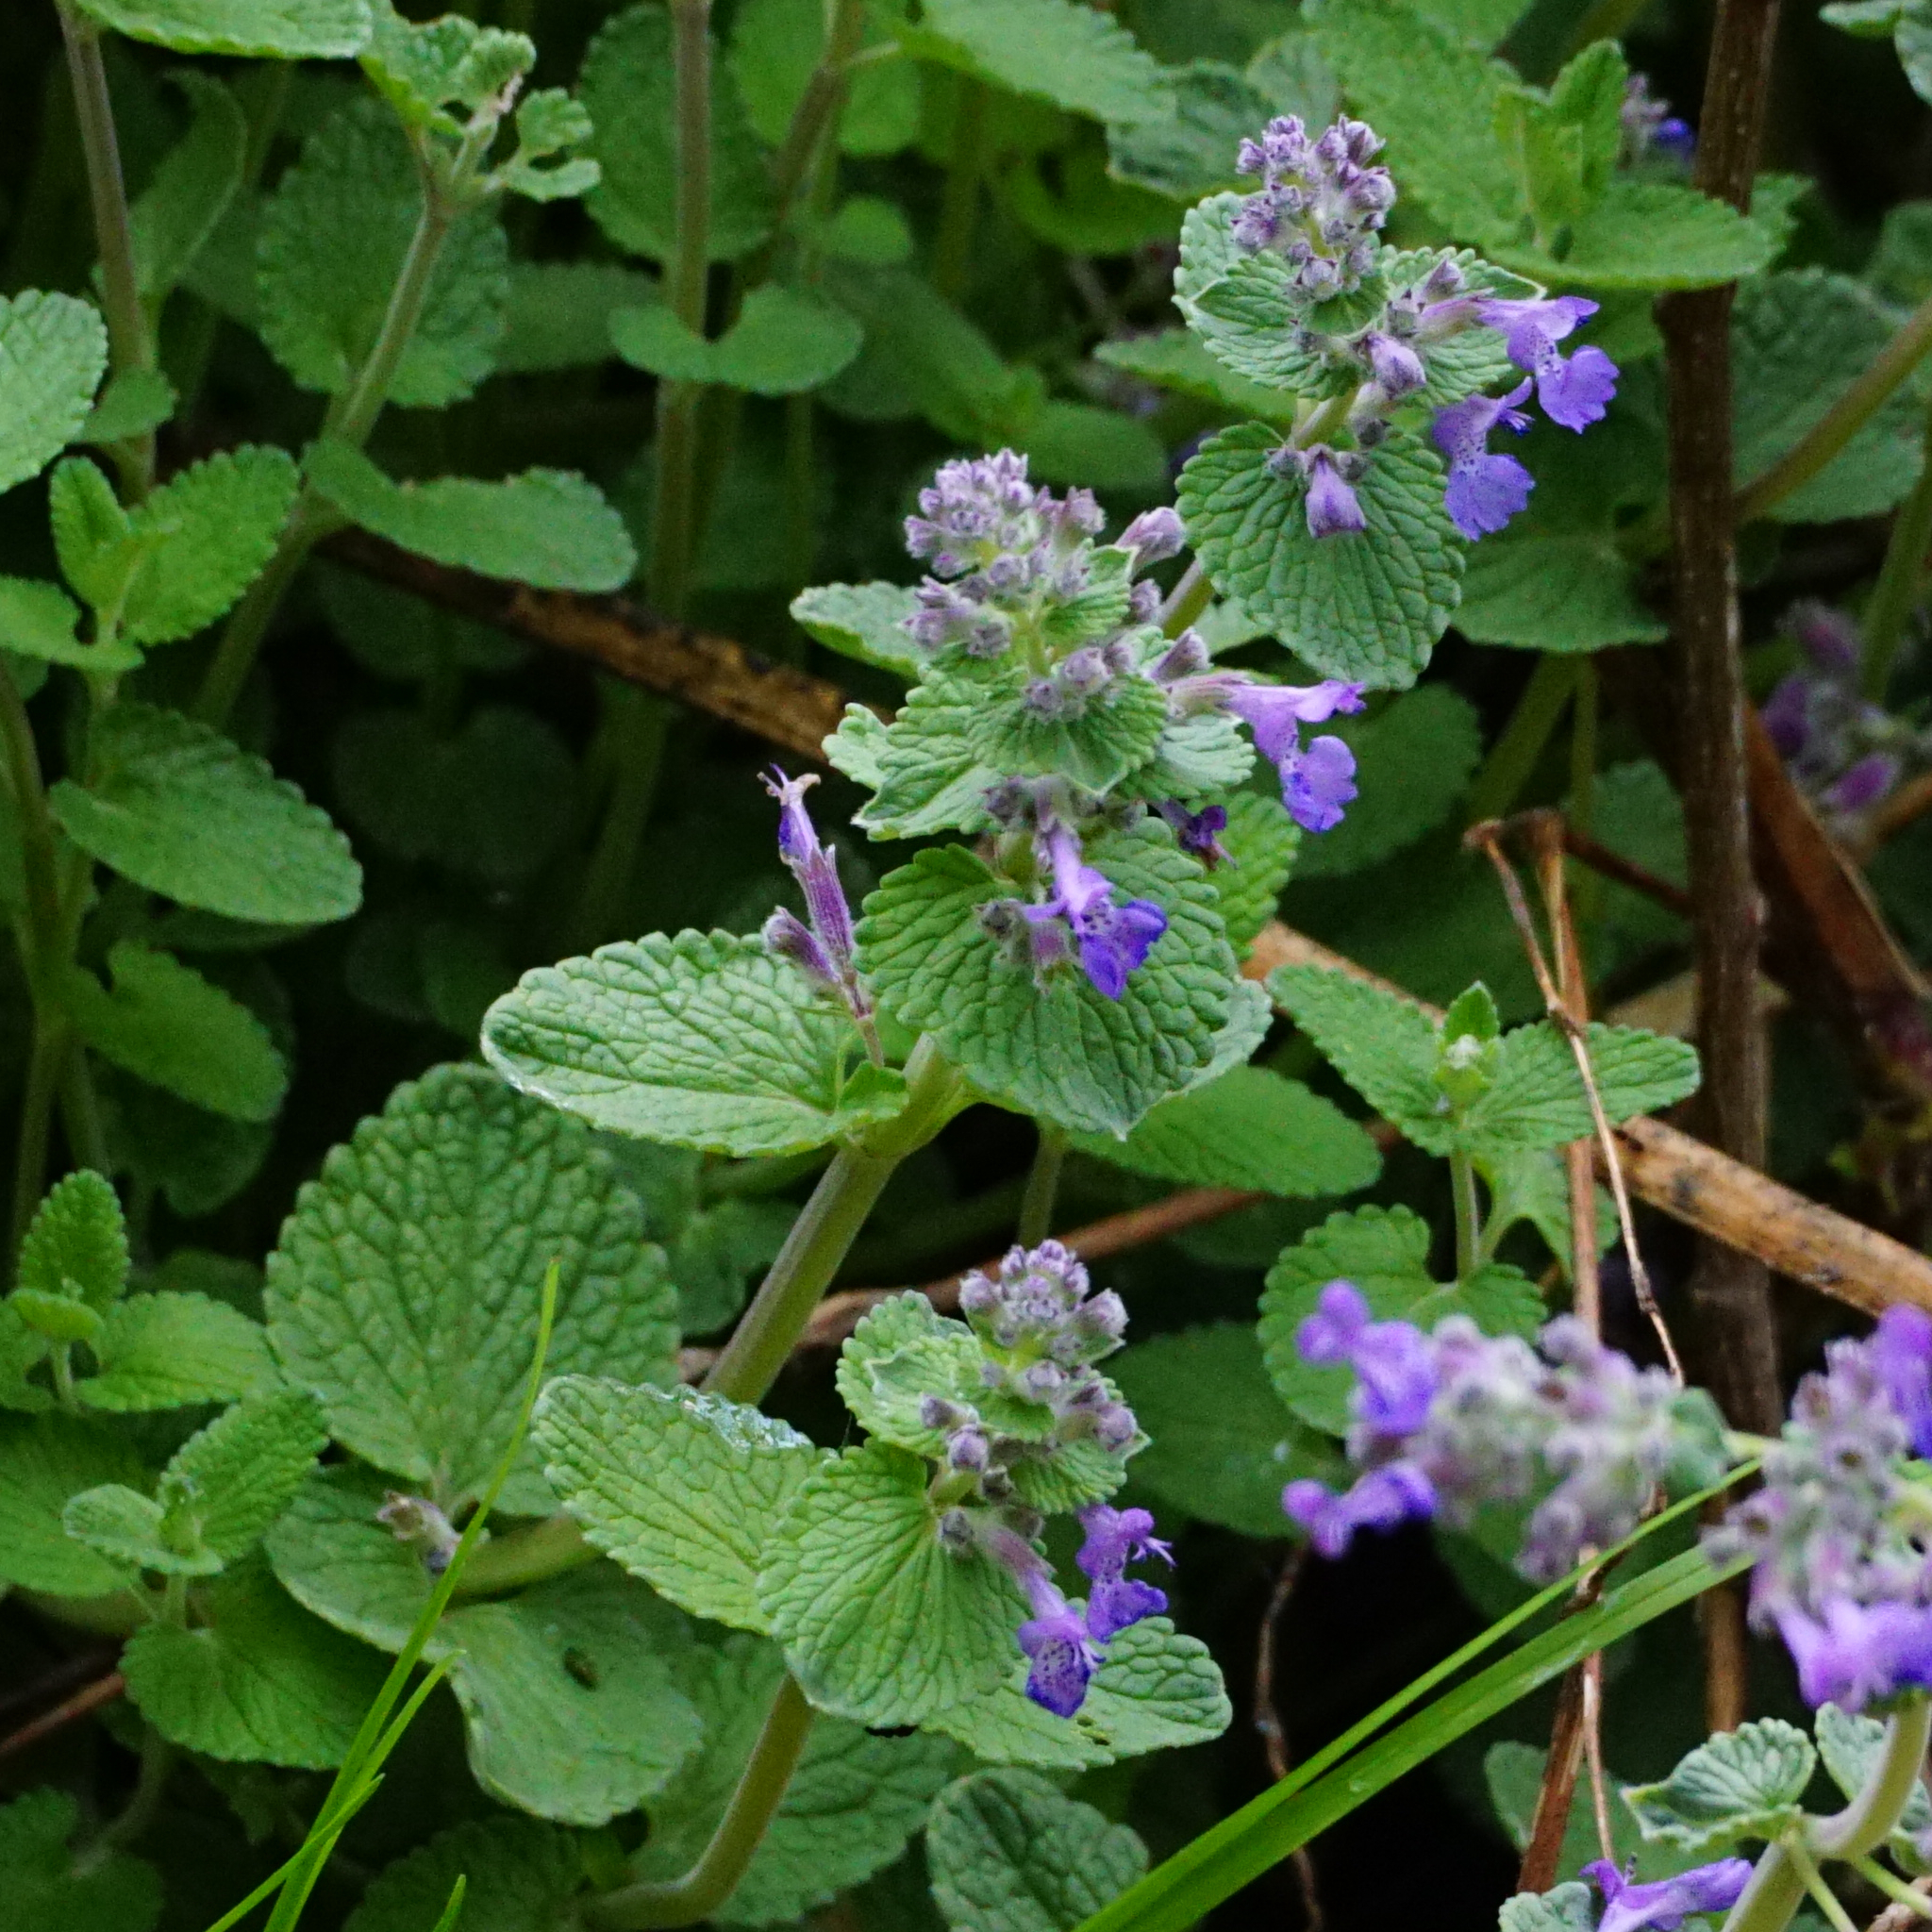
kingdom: Plantae
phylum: Tracheophyta
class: Magnoliopsida
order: Lamiales
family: Lamiaceae
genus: Nepeta
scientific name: Nepeta racemosa
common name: Raceme catnip
